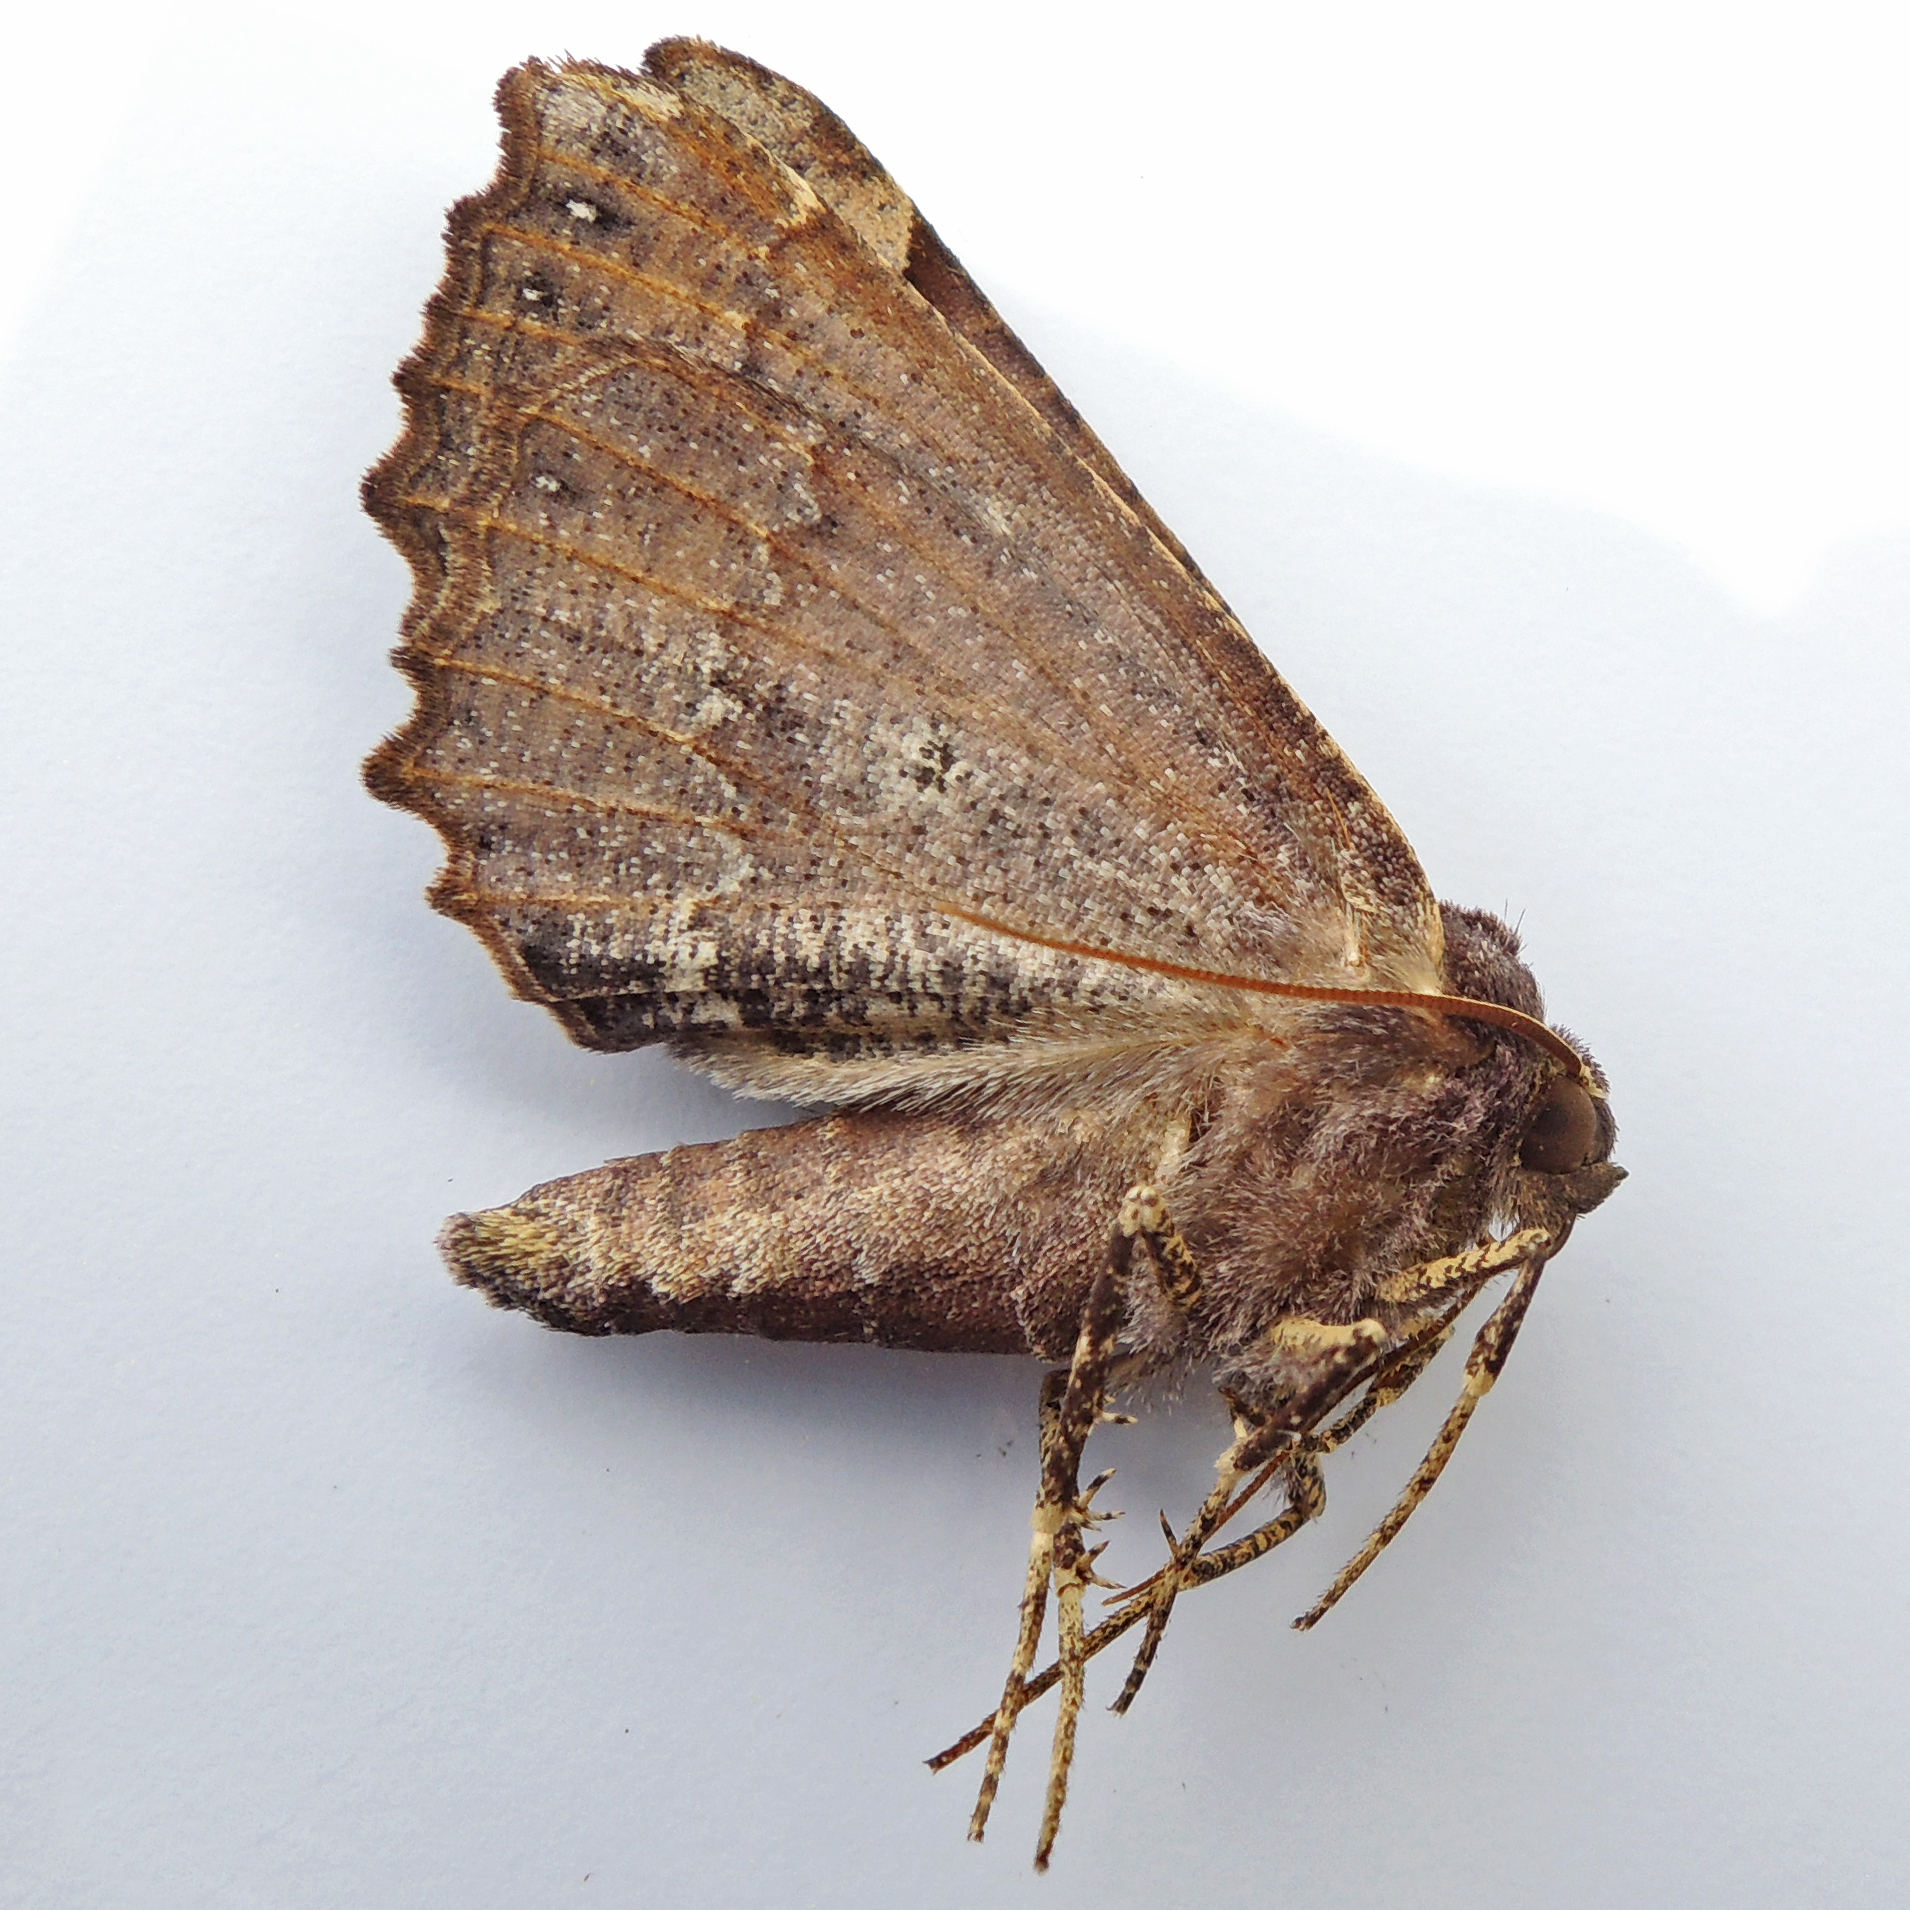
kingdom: Animalia
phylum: Arthropoda
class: Insecta
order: Lepidoptera
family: Geometridae
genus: Pero
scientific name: Pero ancetaria
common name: Hübner's pero
